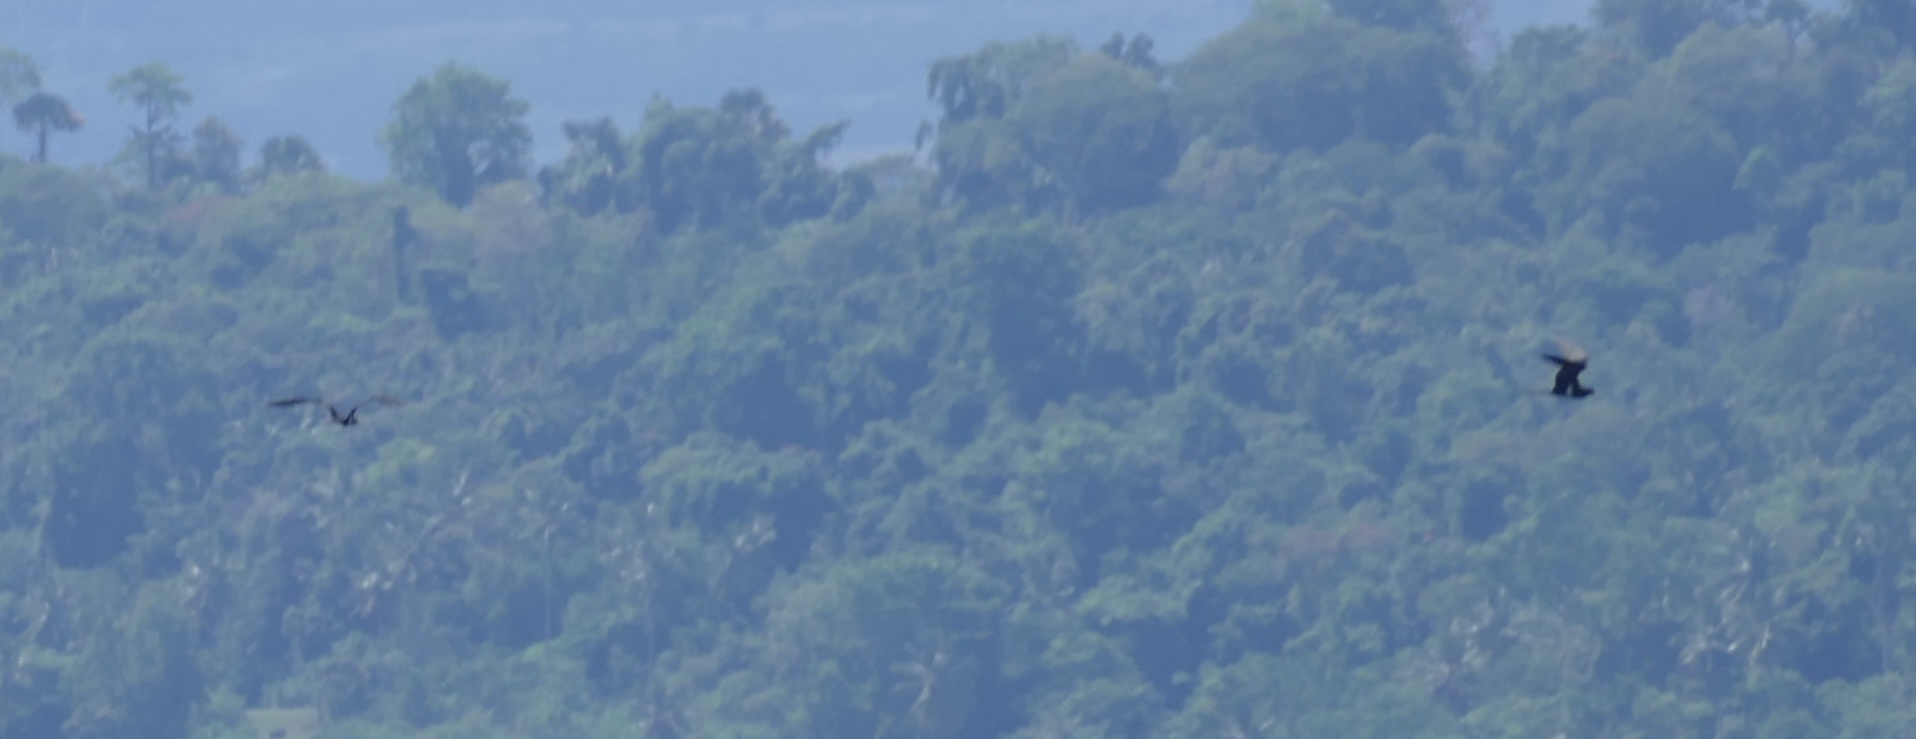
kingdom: Animalia
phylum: Chordata
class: Aves
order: Suliformes
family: Fregatidae
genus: Fregata
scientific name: Fregata ariel
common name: Lesser frigatebird
